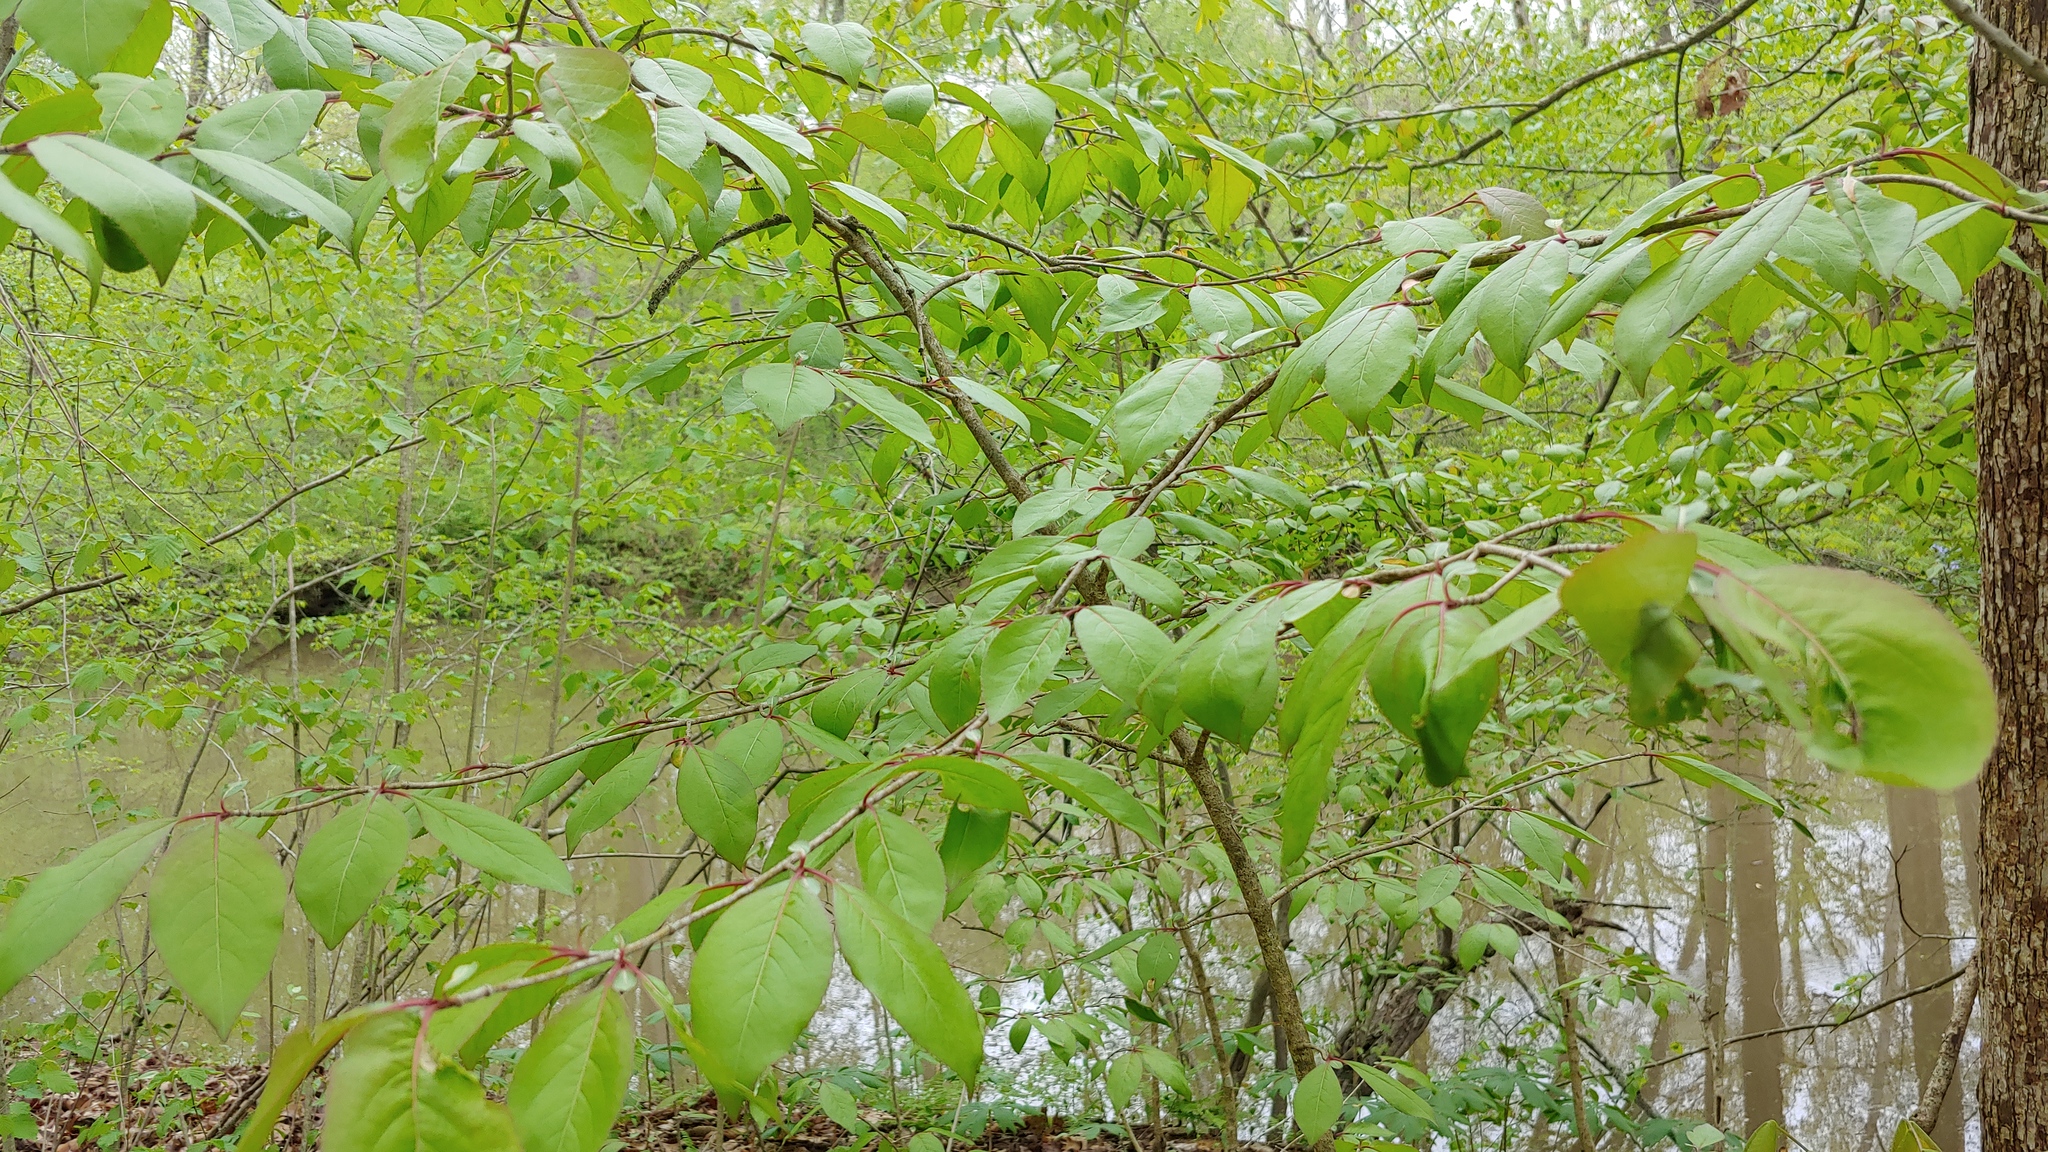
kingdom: Plantae
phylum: Tracheophyta
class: Magnoliopsida
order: Dipsacales
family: Viburnaceae
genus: Viburnum
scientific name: Viburnum prunifolium
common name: Black haw
